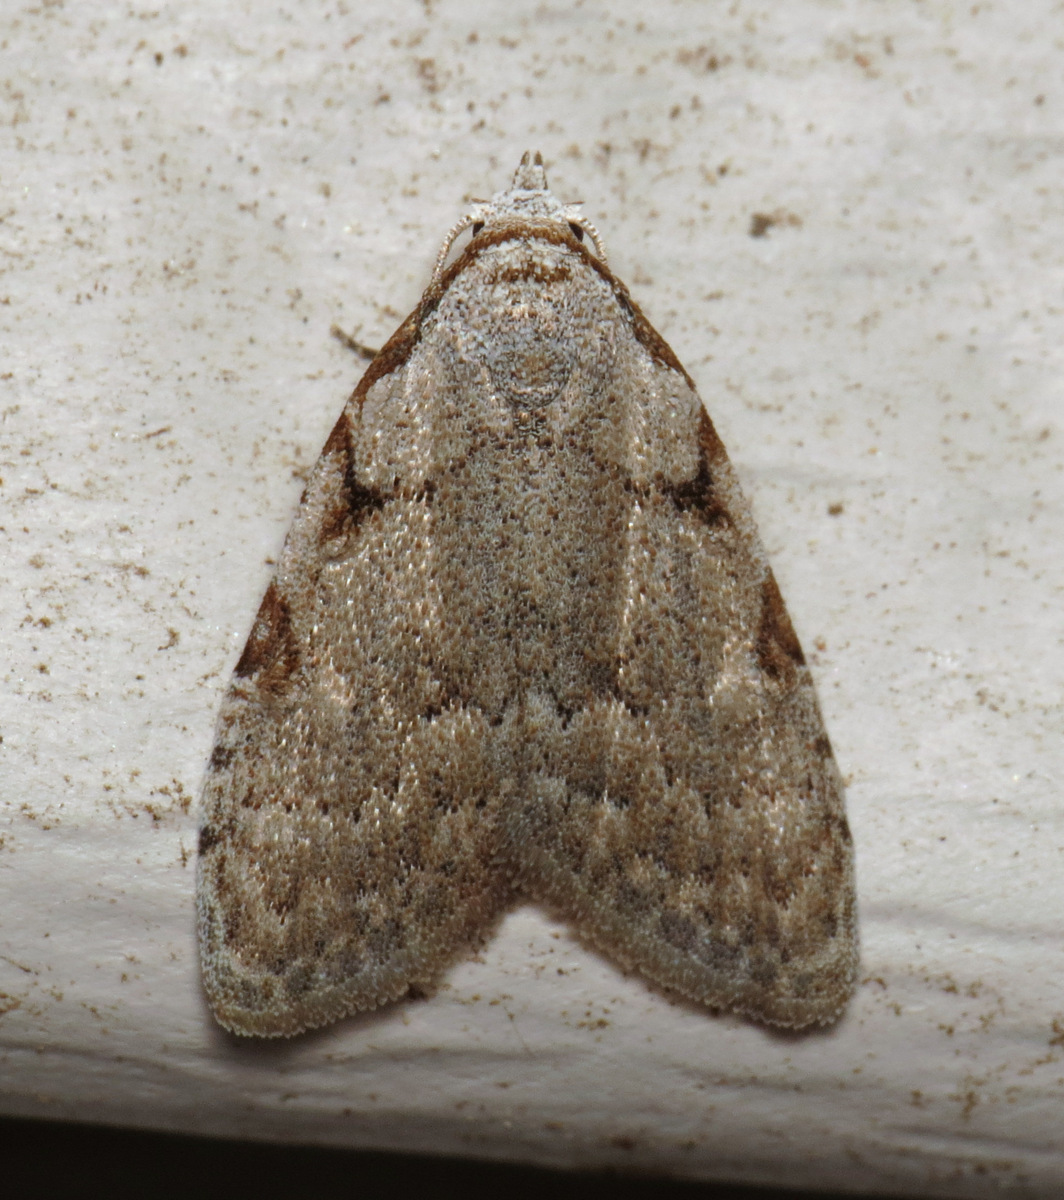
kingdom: Animalia
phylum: Arthropoda
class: Insecta
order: Lepidoptera
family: Nolidae
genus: Nola
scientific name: Nola triquetrana
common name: Three-spotted nola moth
